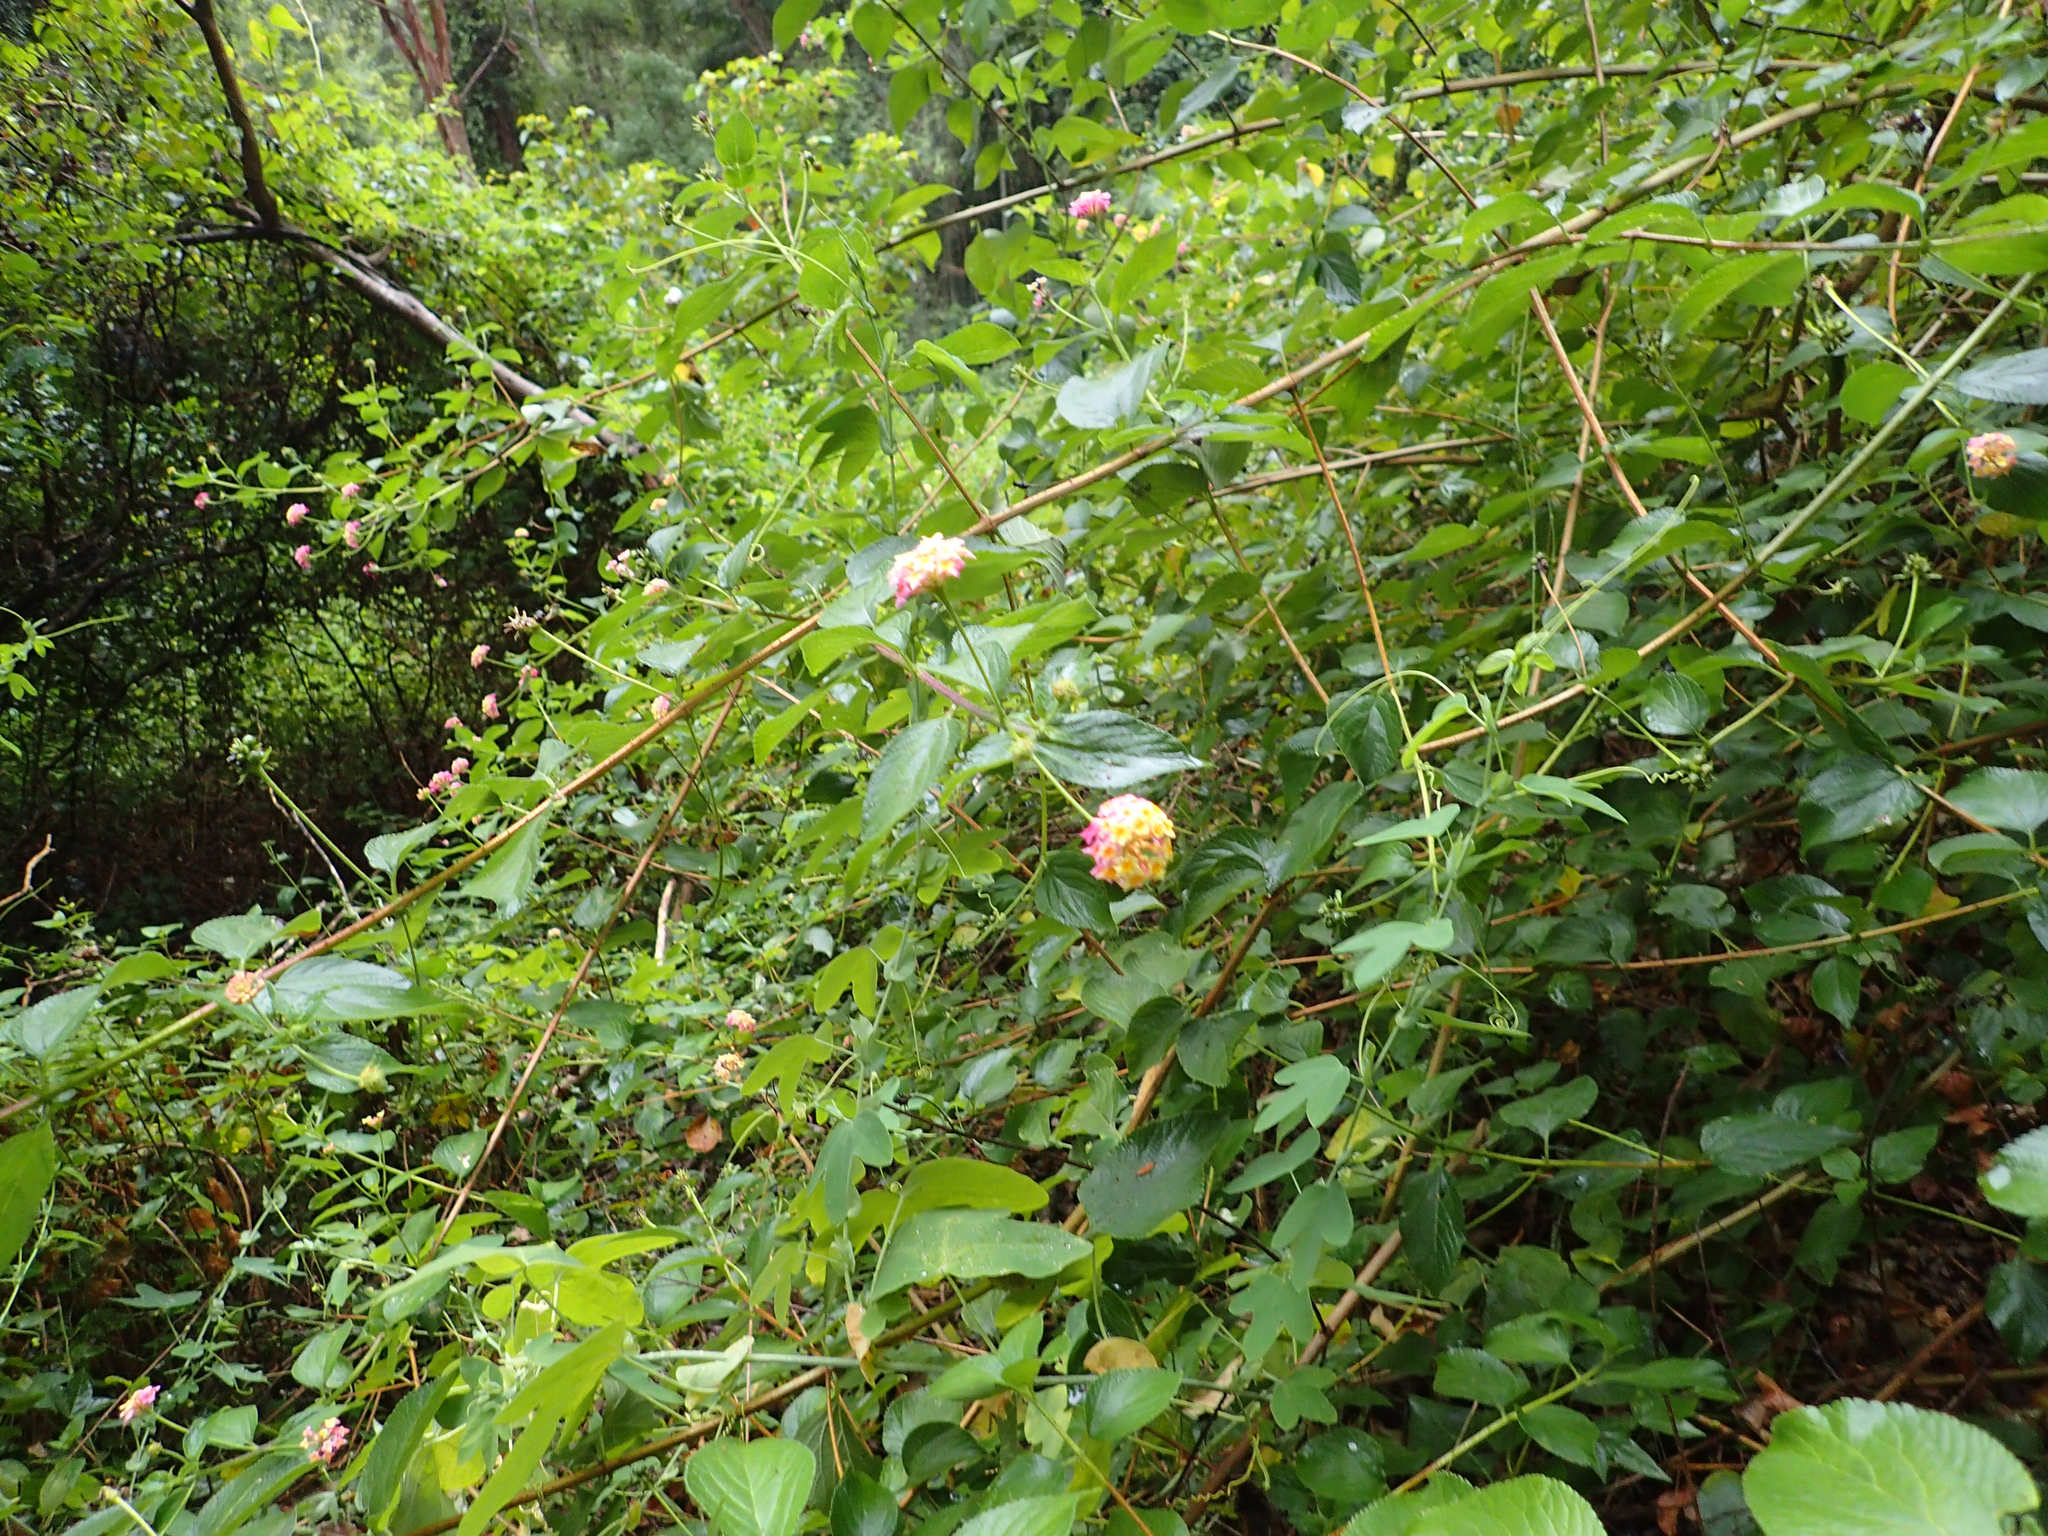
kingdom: Plantae
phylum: Tracheophyta
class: Magnoliopsida
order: Lamiales
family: Verbenaceae
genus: Lantana
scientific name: Lantana camara
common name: Lantana
